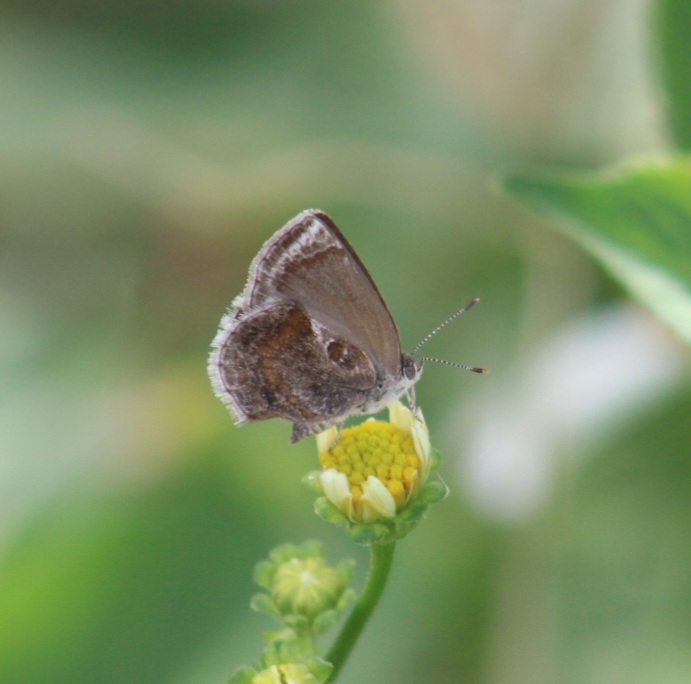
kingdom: Animalia
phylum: Arthropoda
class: Insecta
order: Lepidoptera
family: Lycaenidae
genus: Strymon
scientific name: Strymon bazochii
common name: Lantana scrub-hairstreak
